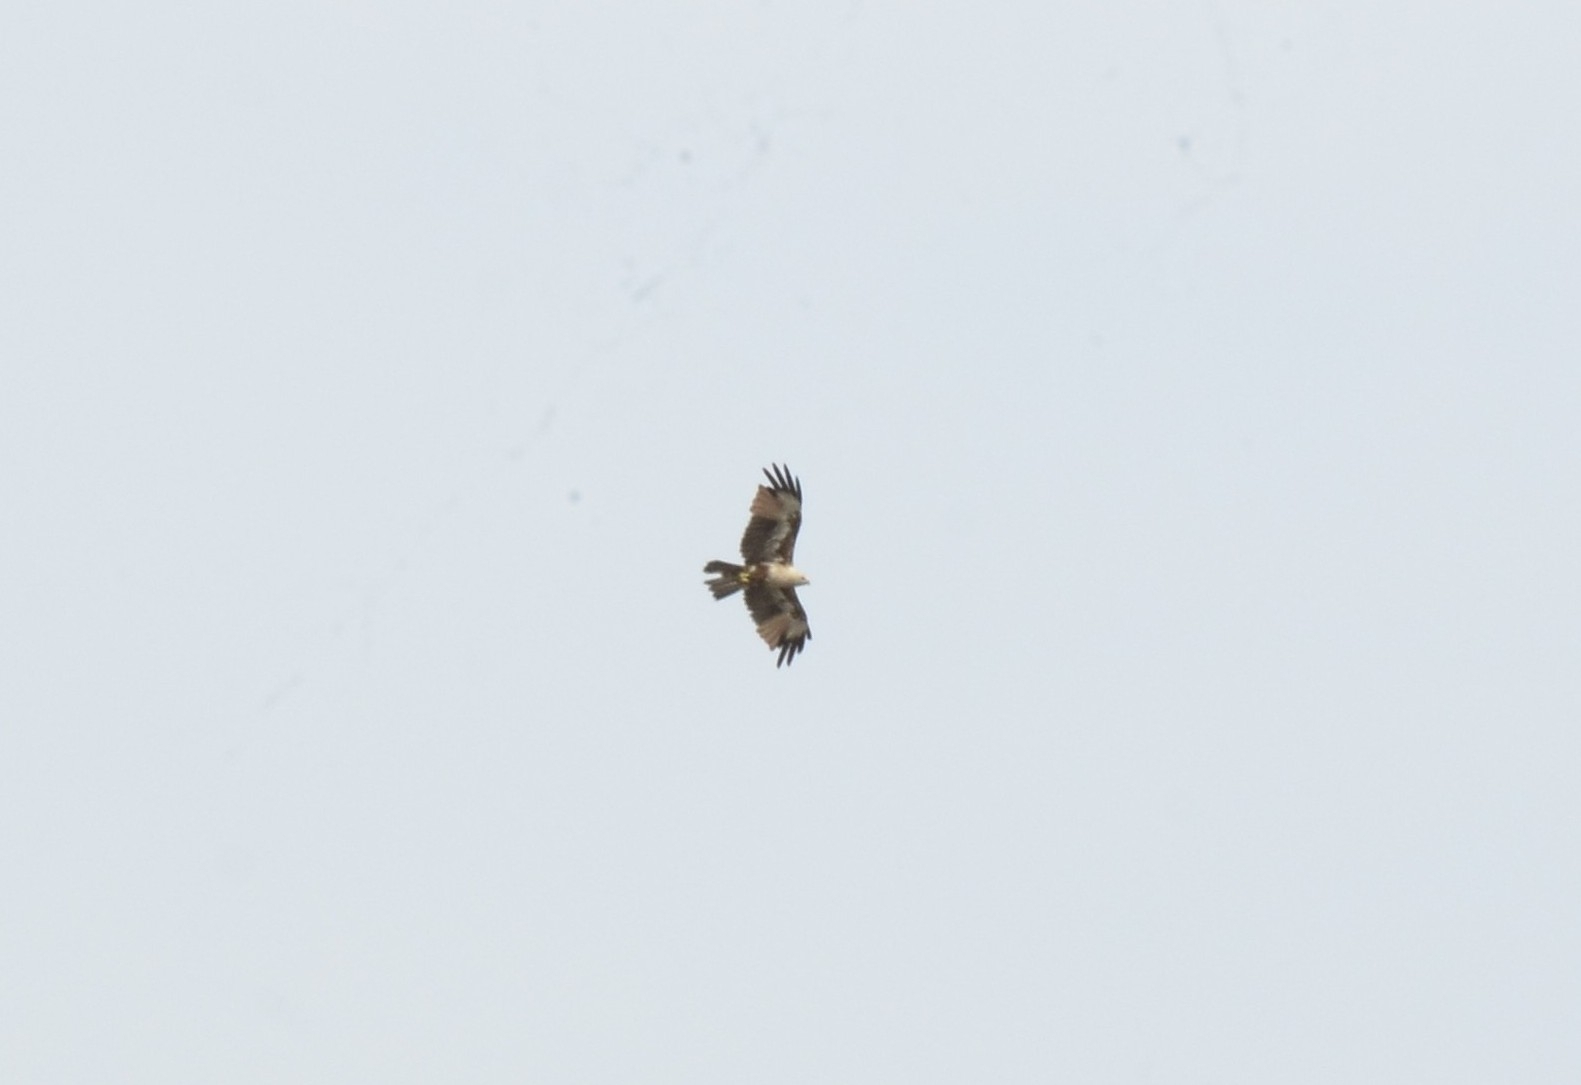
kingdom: Animalia
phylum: Chordata
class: Aves
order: Accipitriformes
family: Accipitridae
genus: Haliastur
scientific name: Haliastur indus
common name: Brahminy kite
